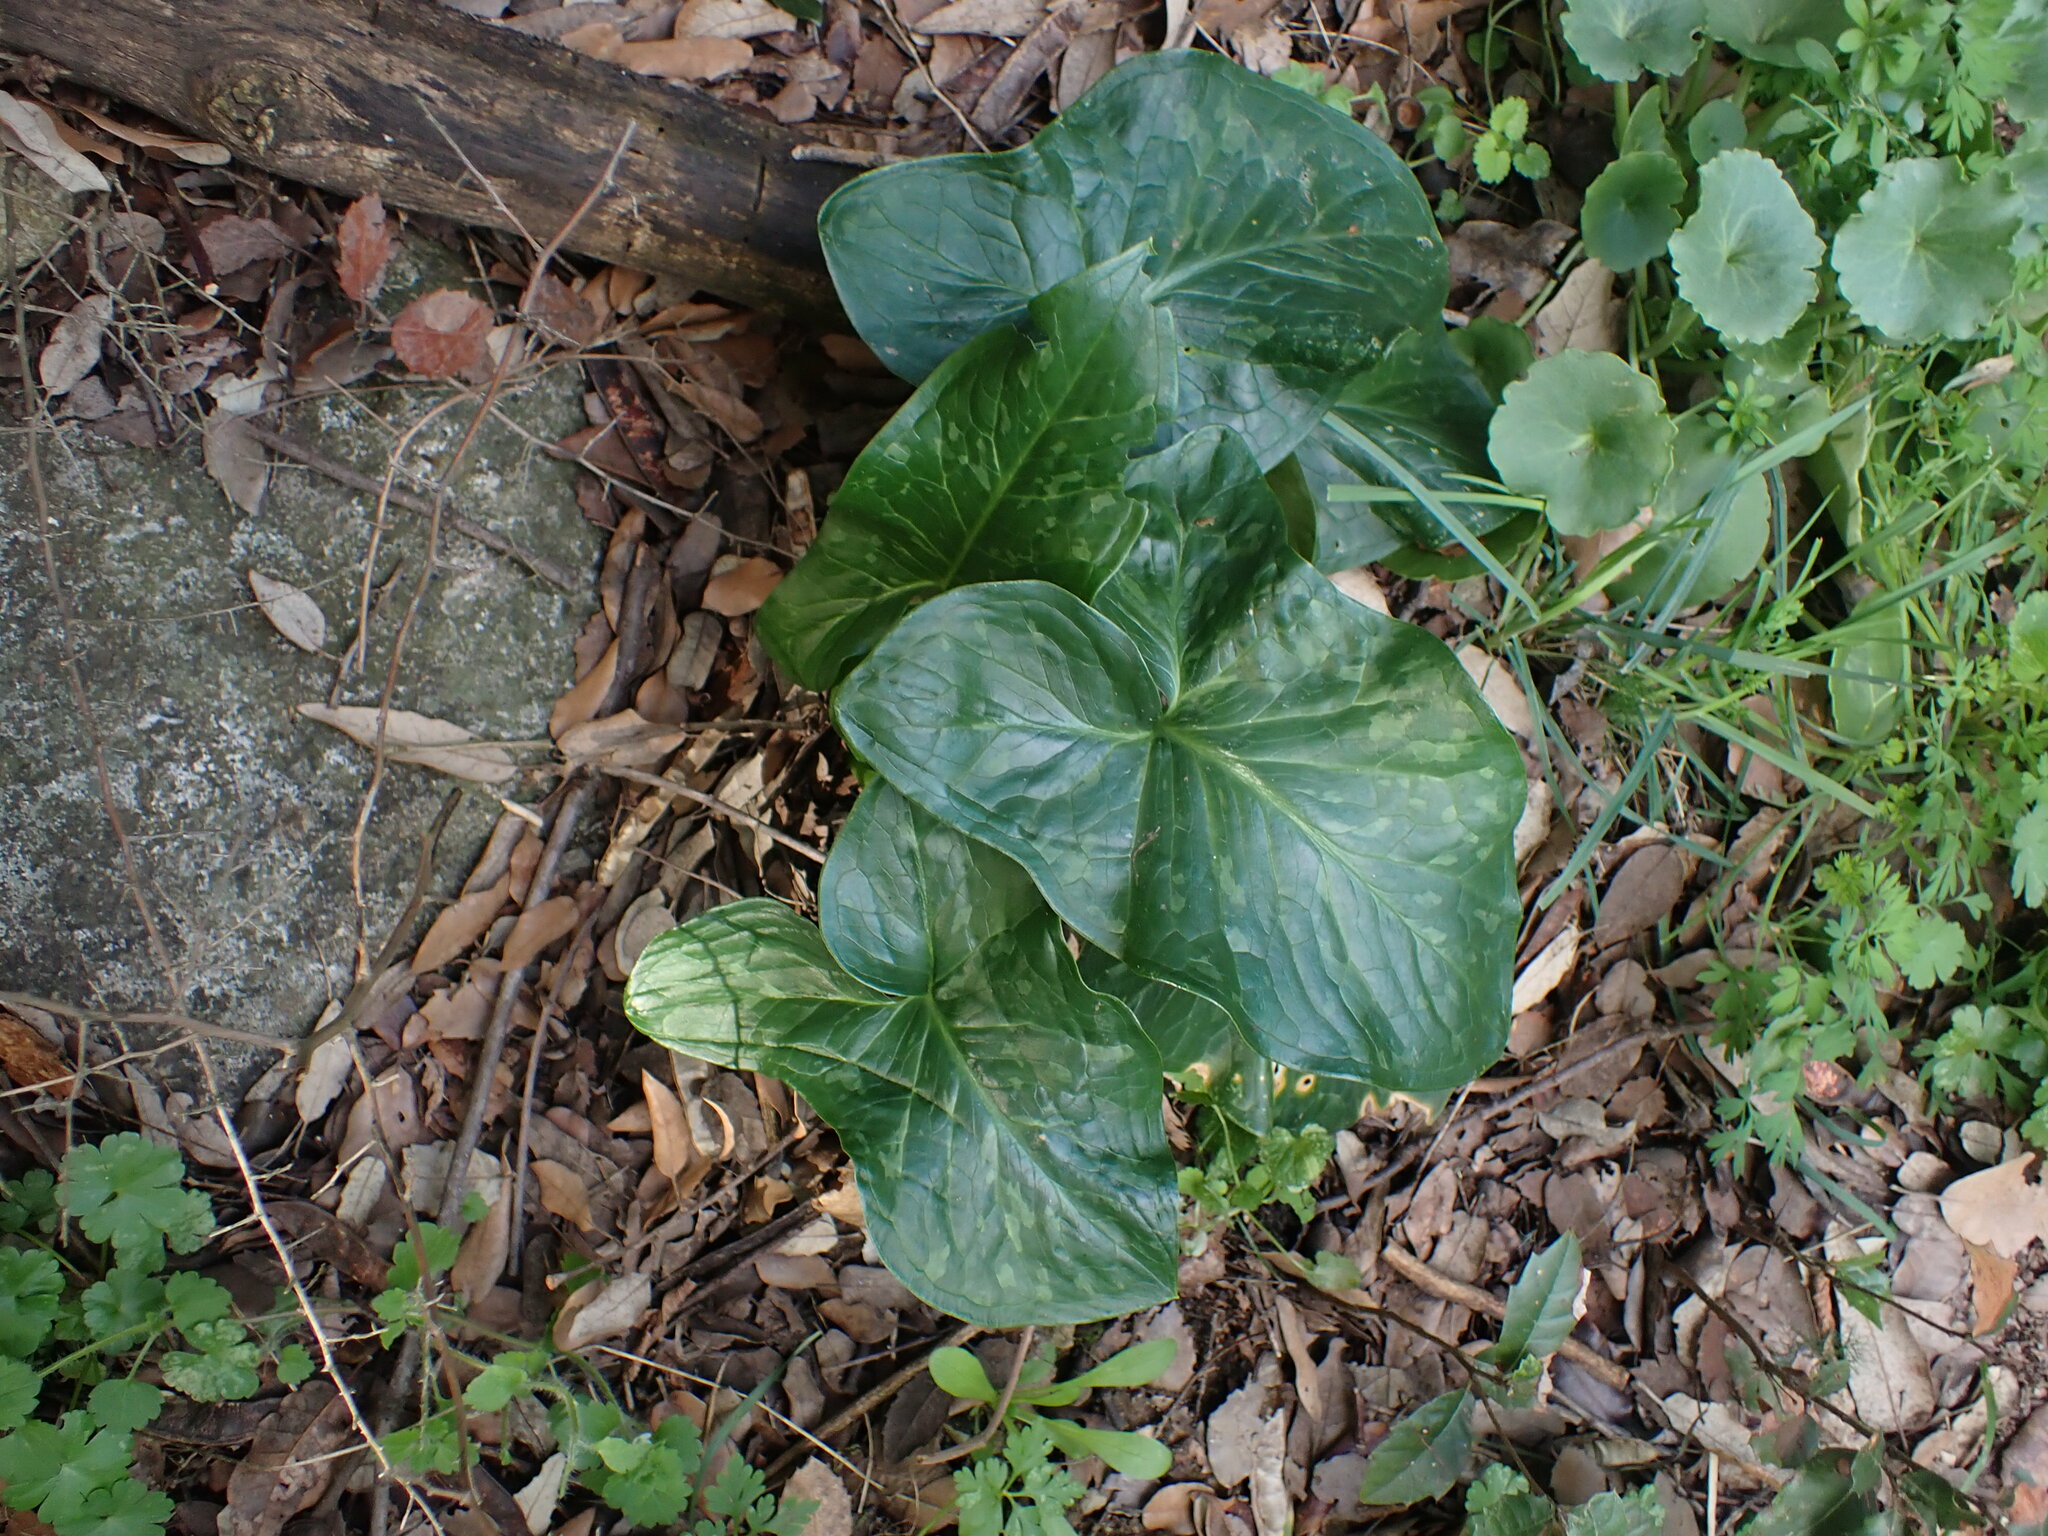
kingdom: Plantae
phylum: Tracheophyta
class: Liliopsida
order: Alismatales
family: Araceae
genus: Arum
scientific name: Arum italicum
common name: Italian lords-and-ladies
